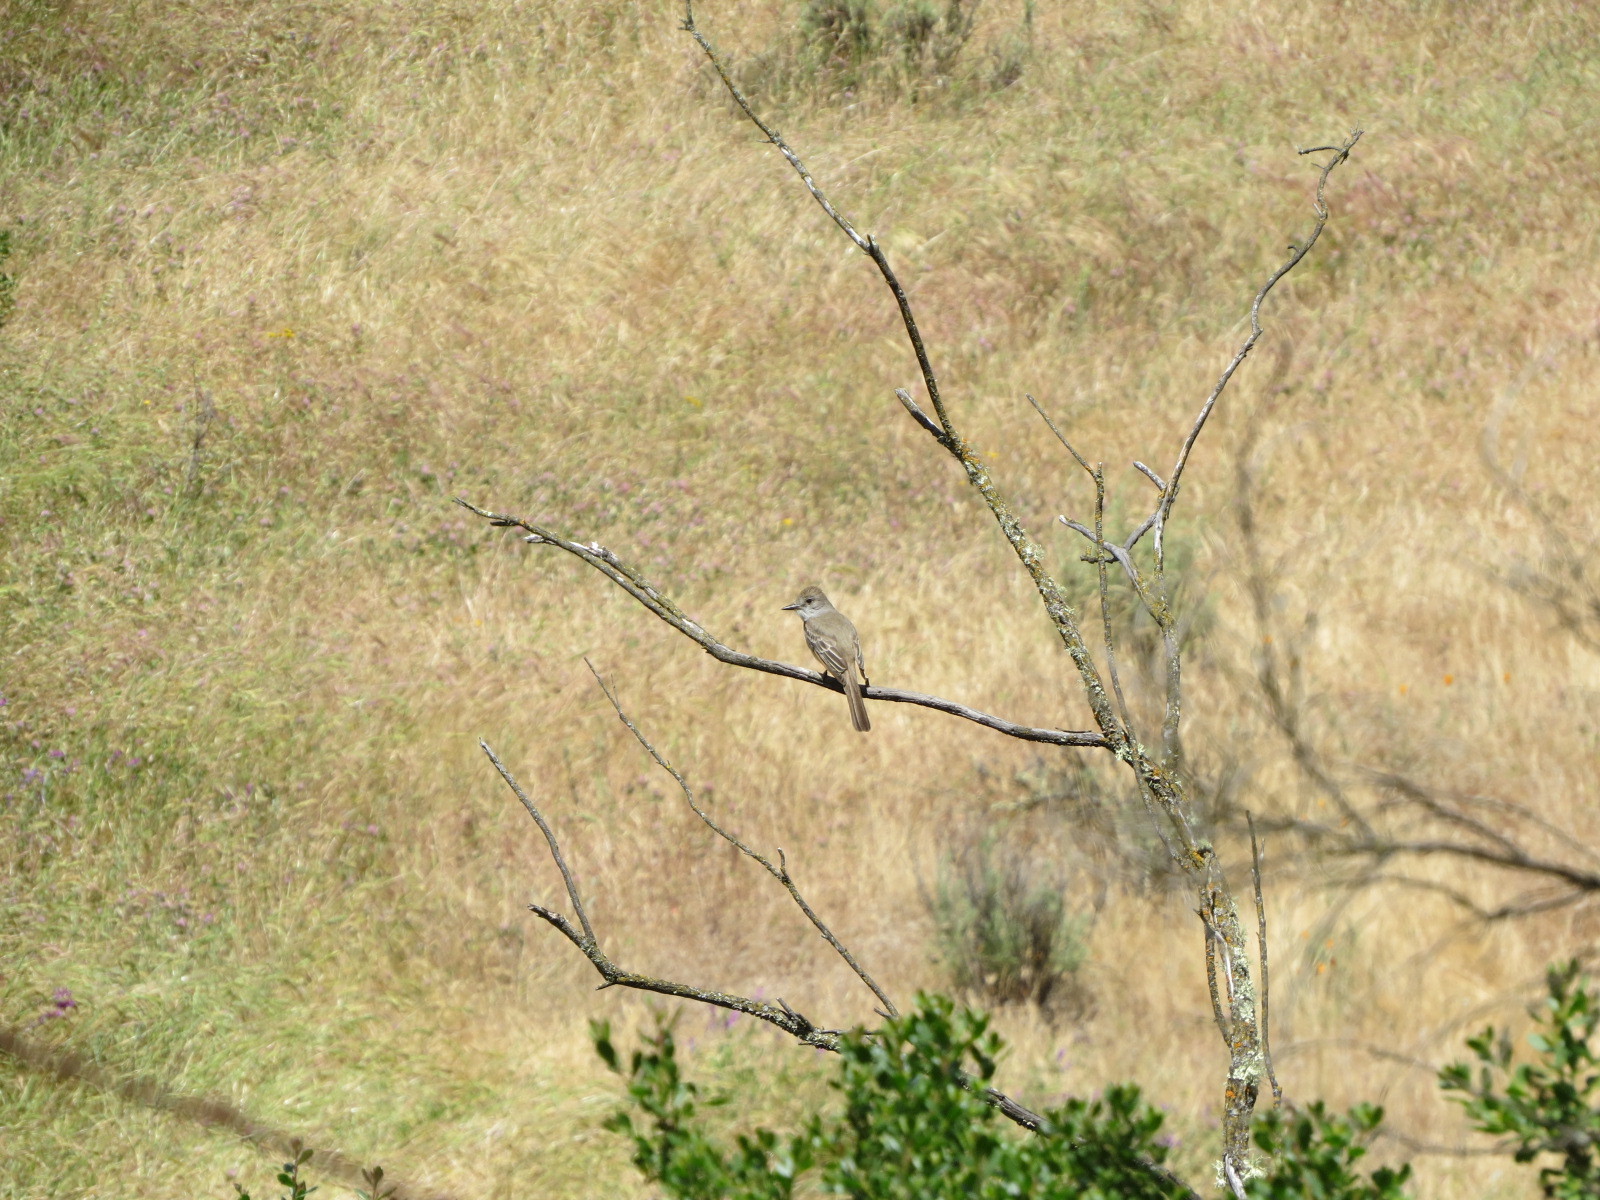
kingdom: Animalia
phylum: Chordata
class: Aves
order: Passeriformes
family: Tyrannidae
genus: Myiarchus
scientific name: Myiarchus cinerascens
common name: Ash-throated flycatcher
